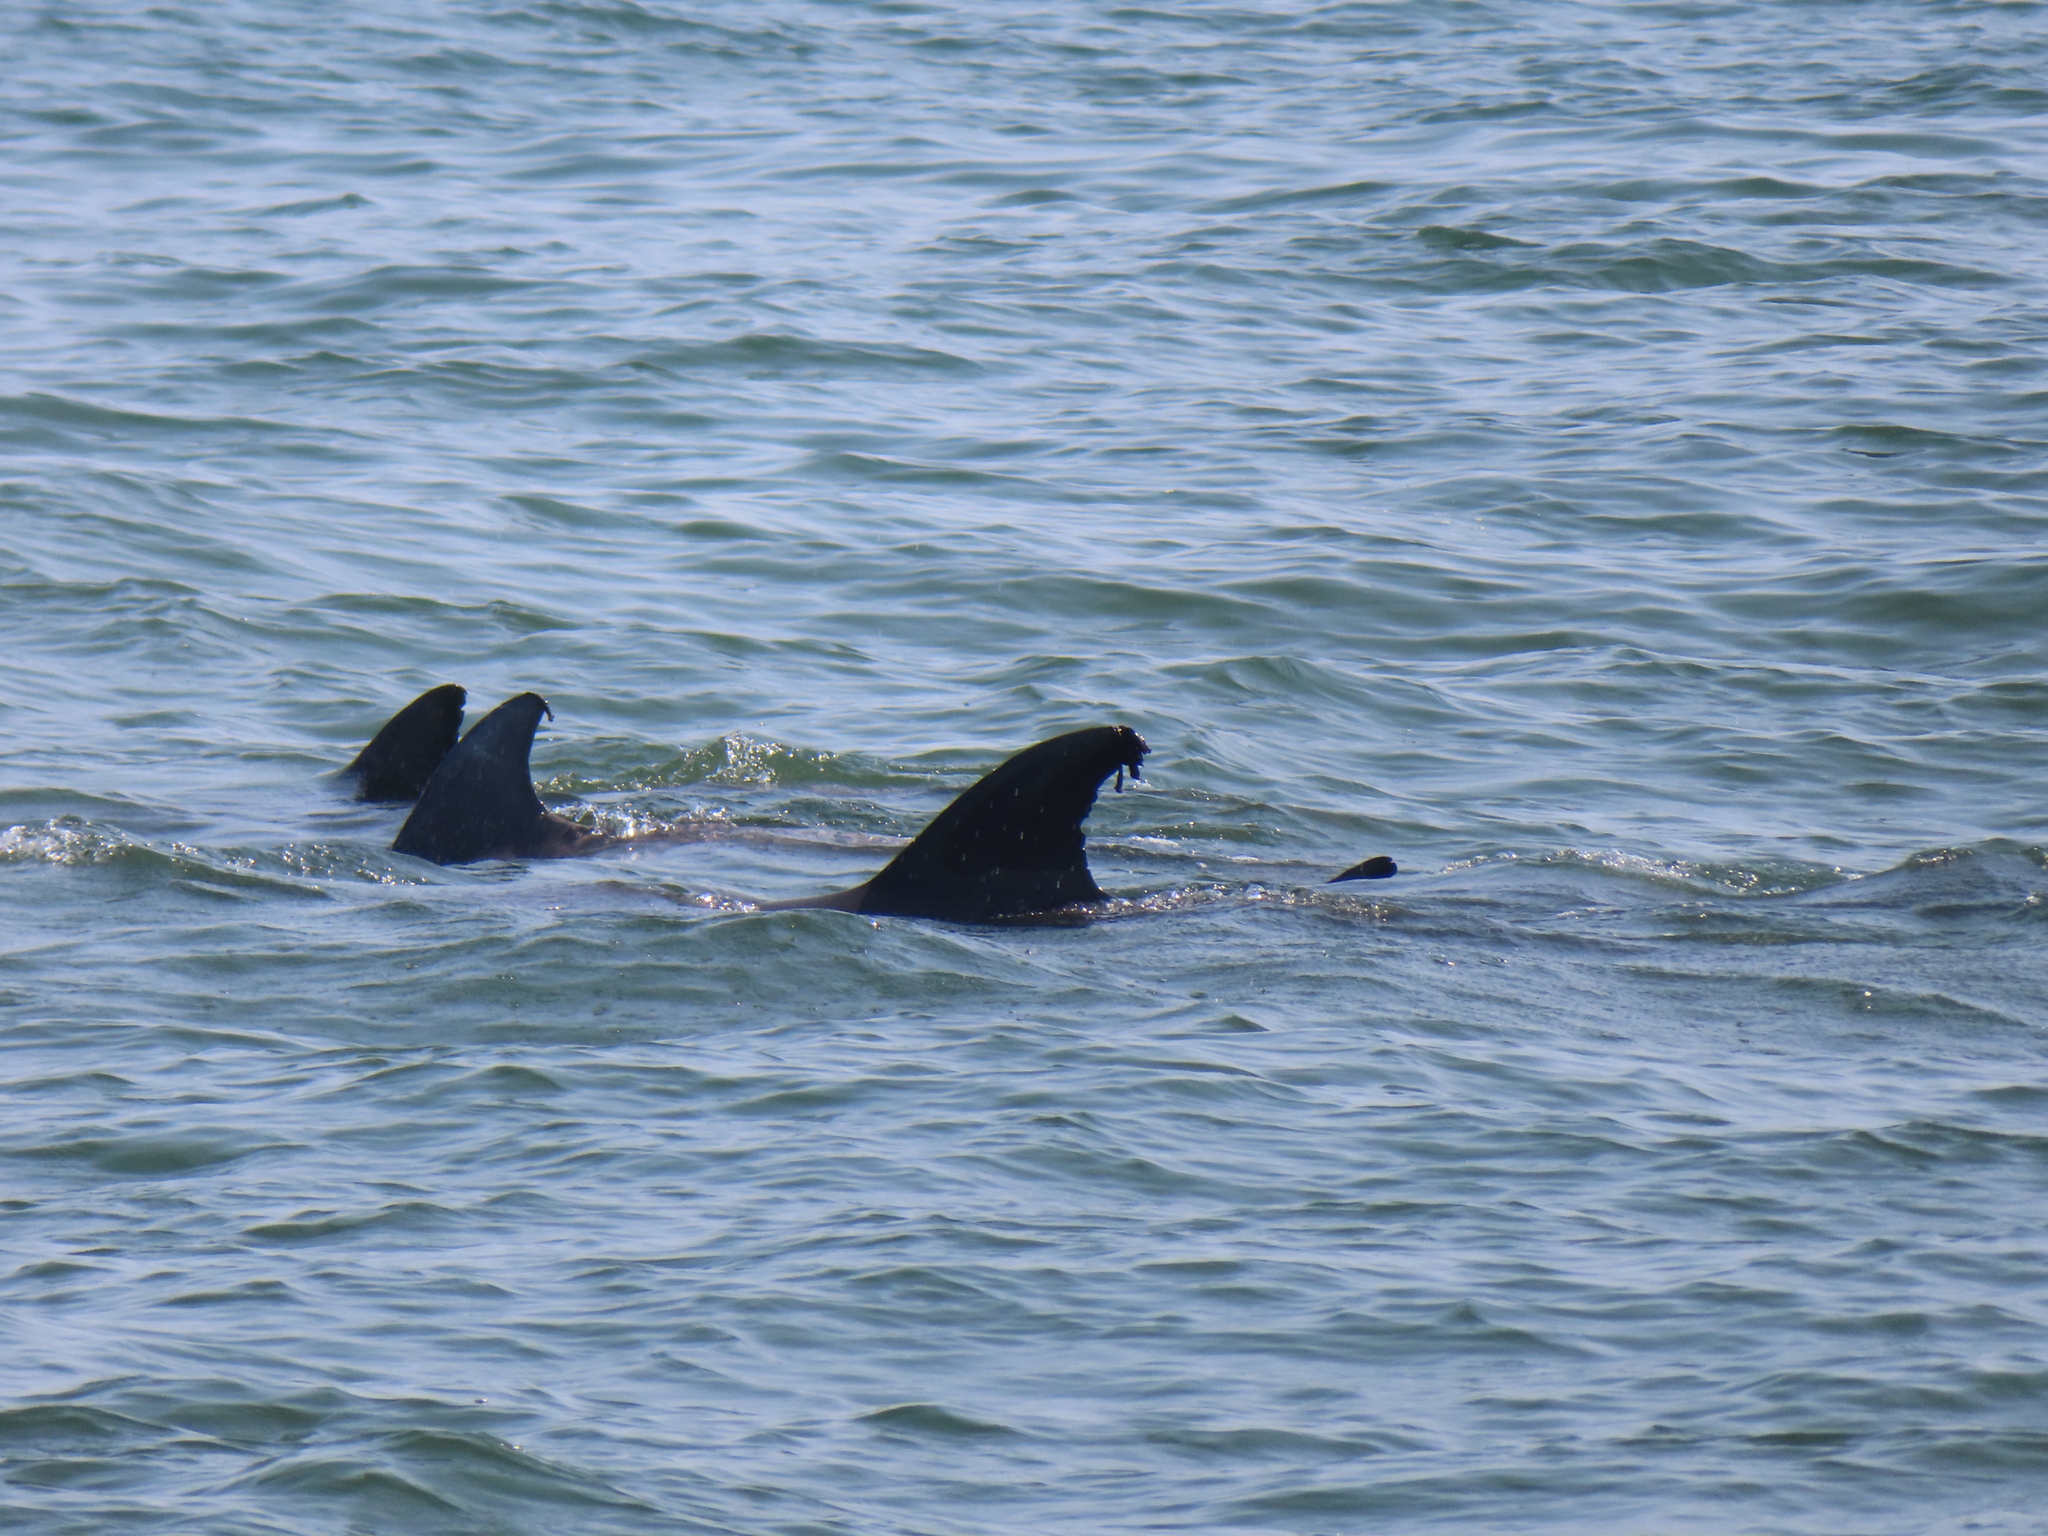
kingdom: Animalia
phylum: Chordata
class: Mammalia
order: Cetacea
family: Delphinidae
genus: Tursiops
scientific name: Tursiops truncatus
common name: Bottlenose dolphin
